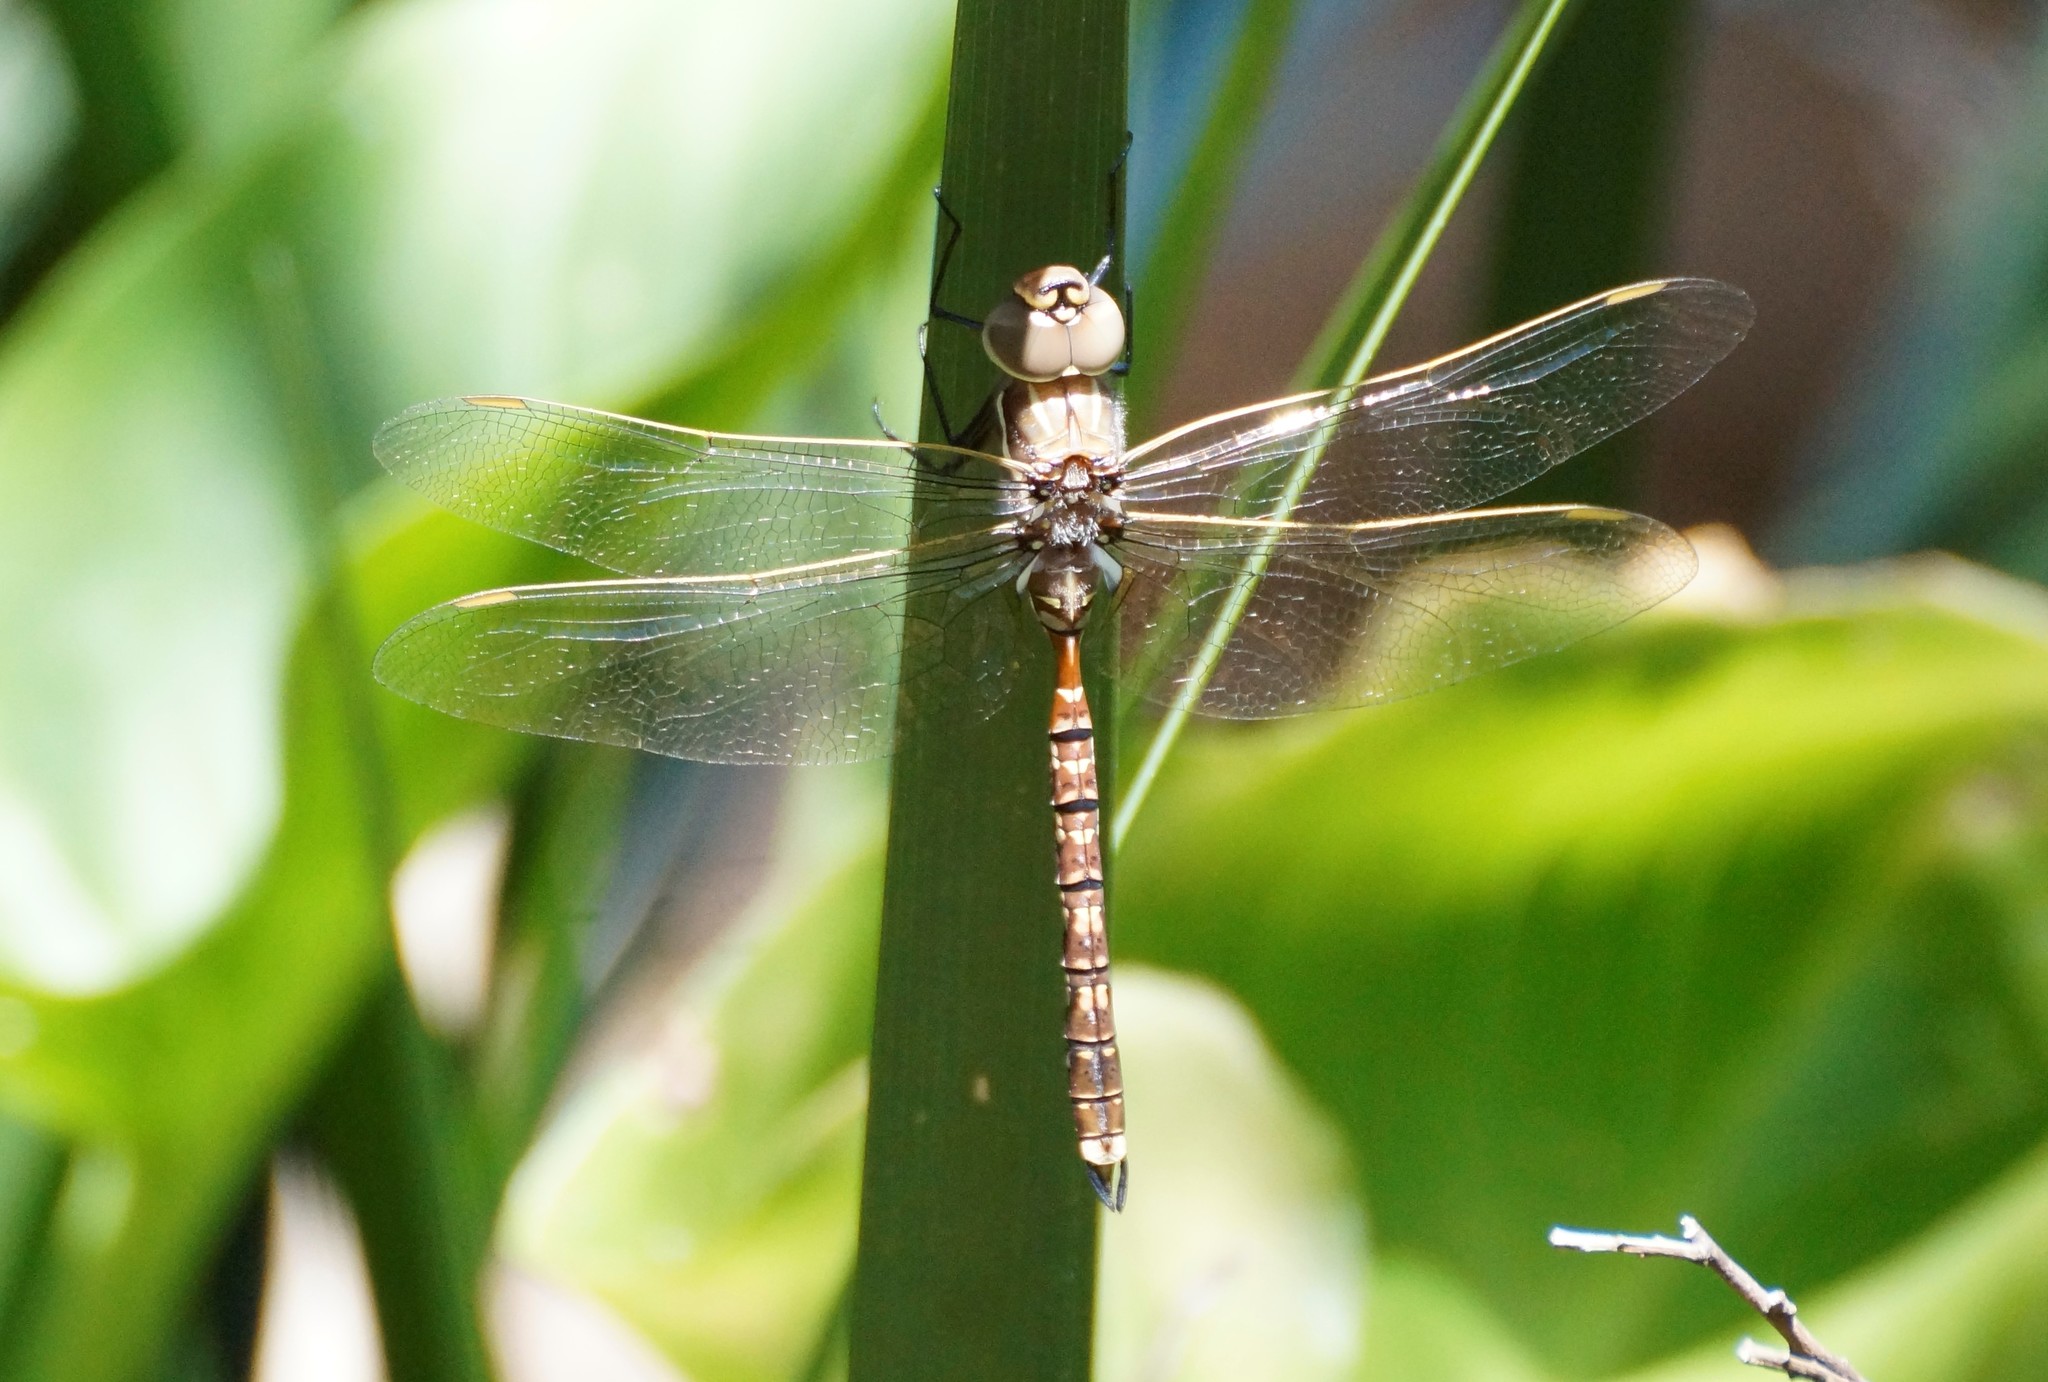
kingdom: Animalia
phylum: Arthropoda
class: Insecta
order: Odonata
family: Aeshnidae
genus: Aeshna
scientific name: Aeshna brevistyla
